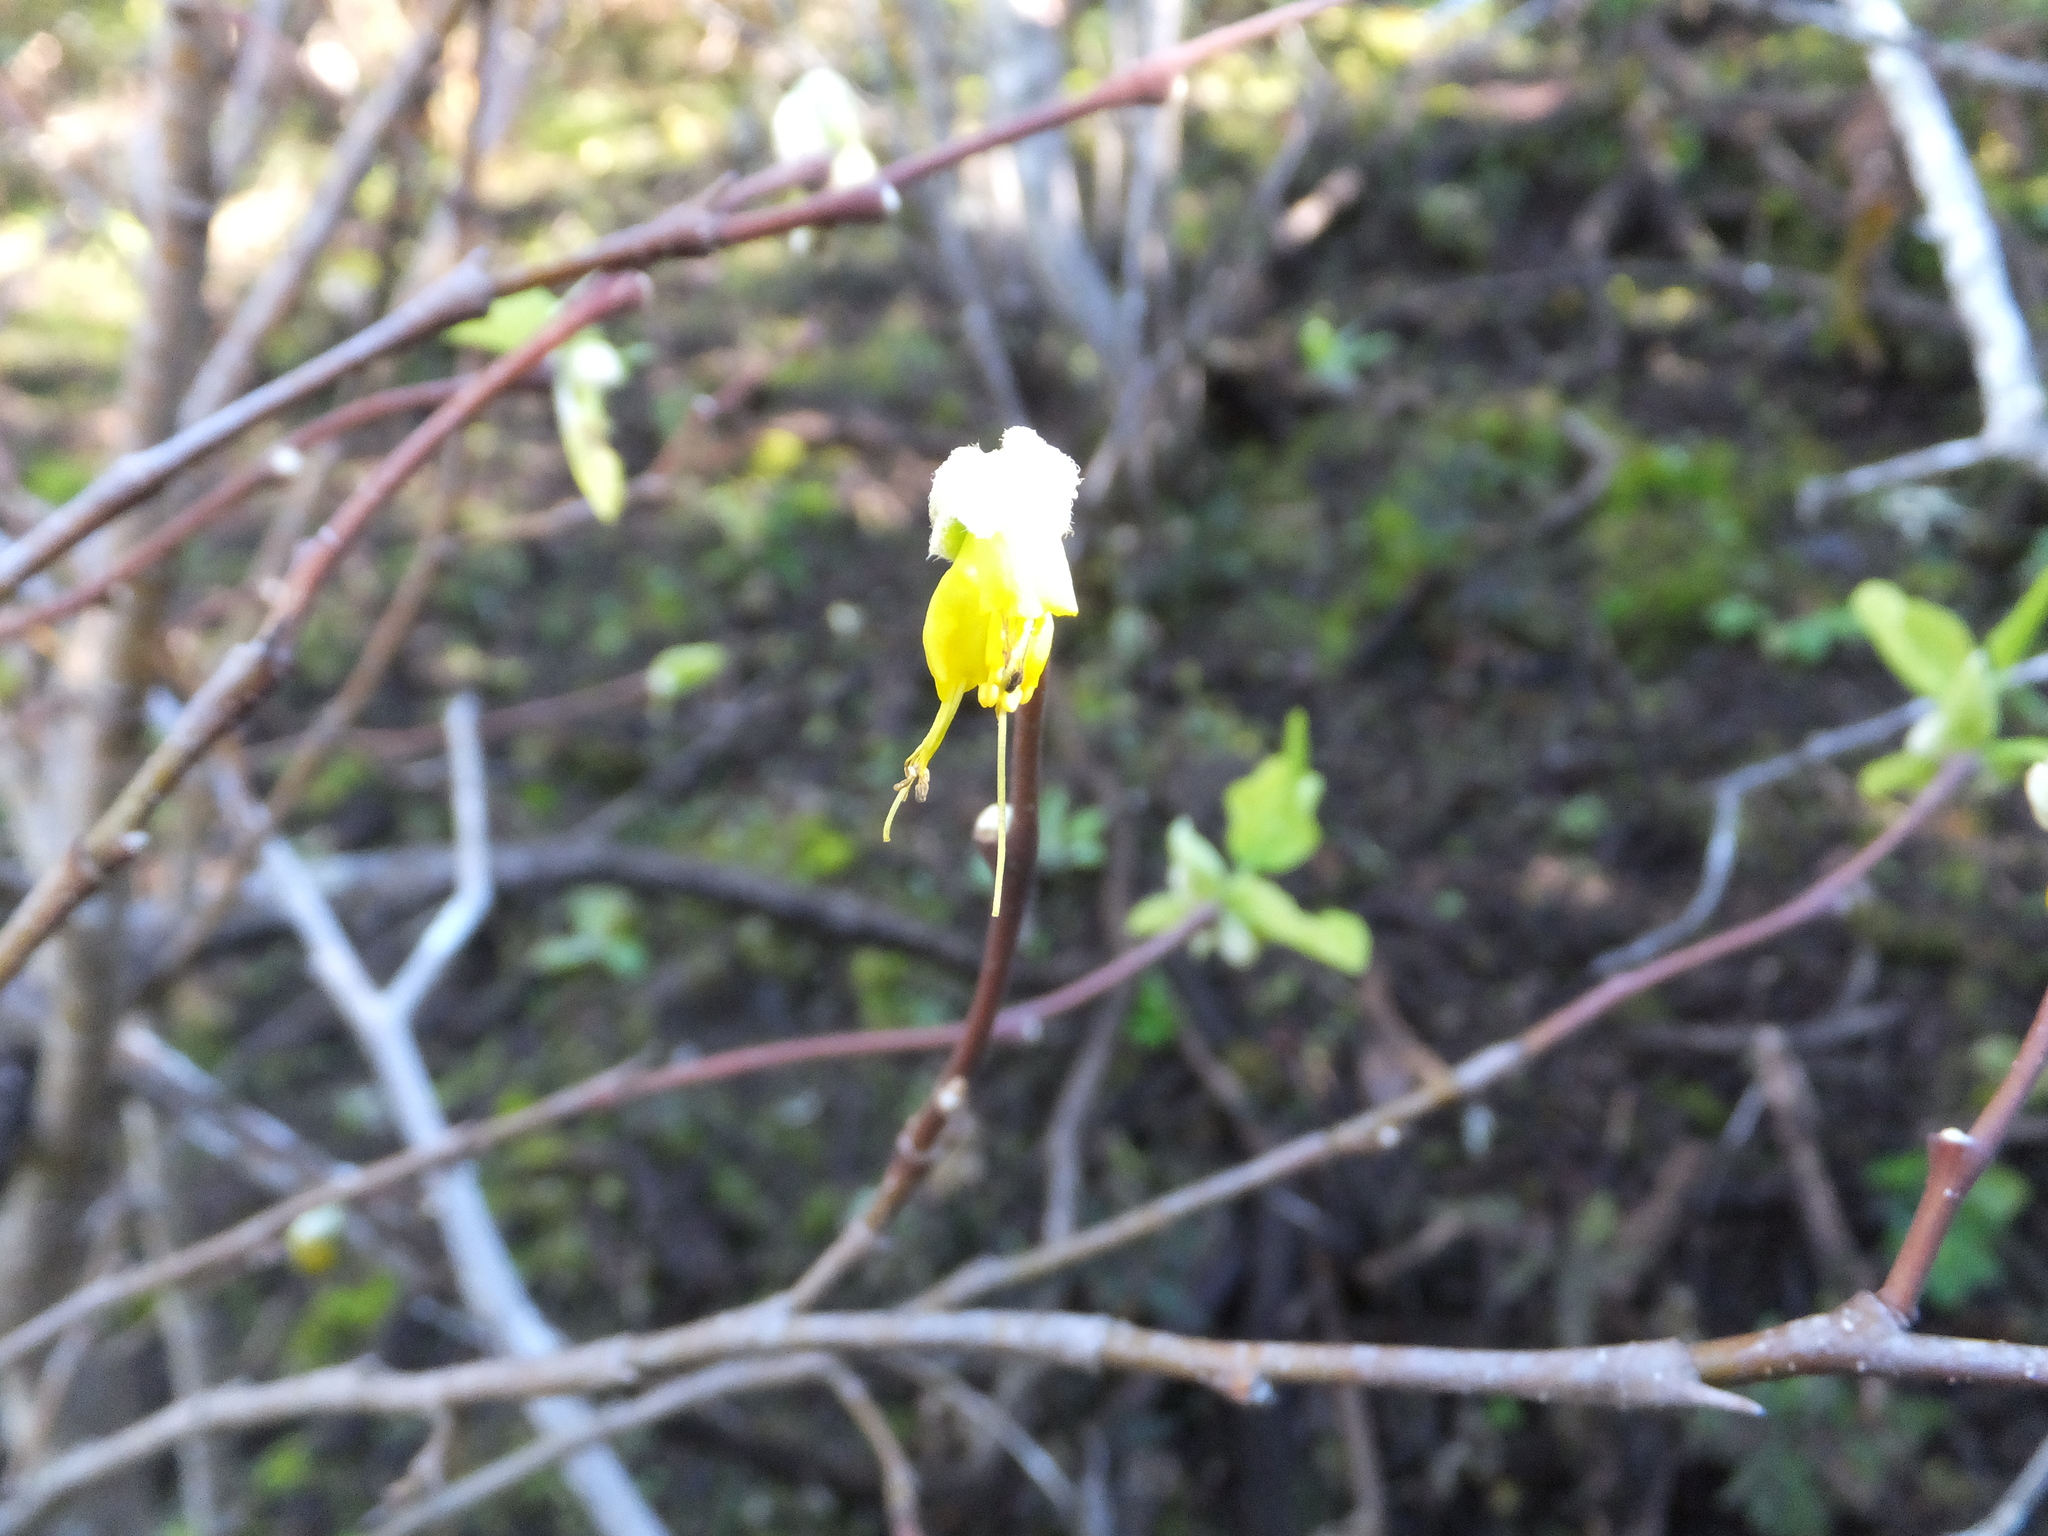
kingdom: Plantae
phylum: Tracheophyta
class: Magnoliopsida
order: Malvales
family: Thymelaeaceae
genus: Dirca
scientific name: Dirca occidentalis
